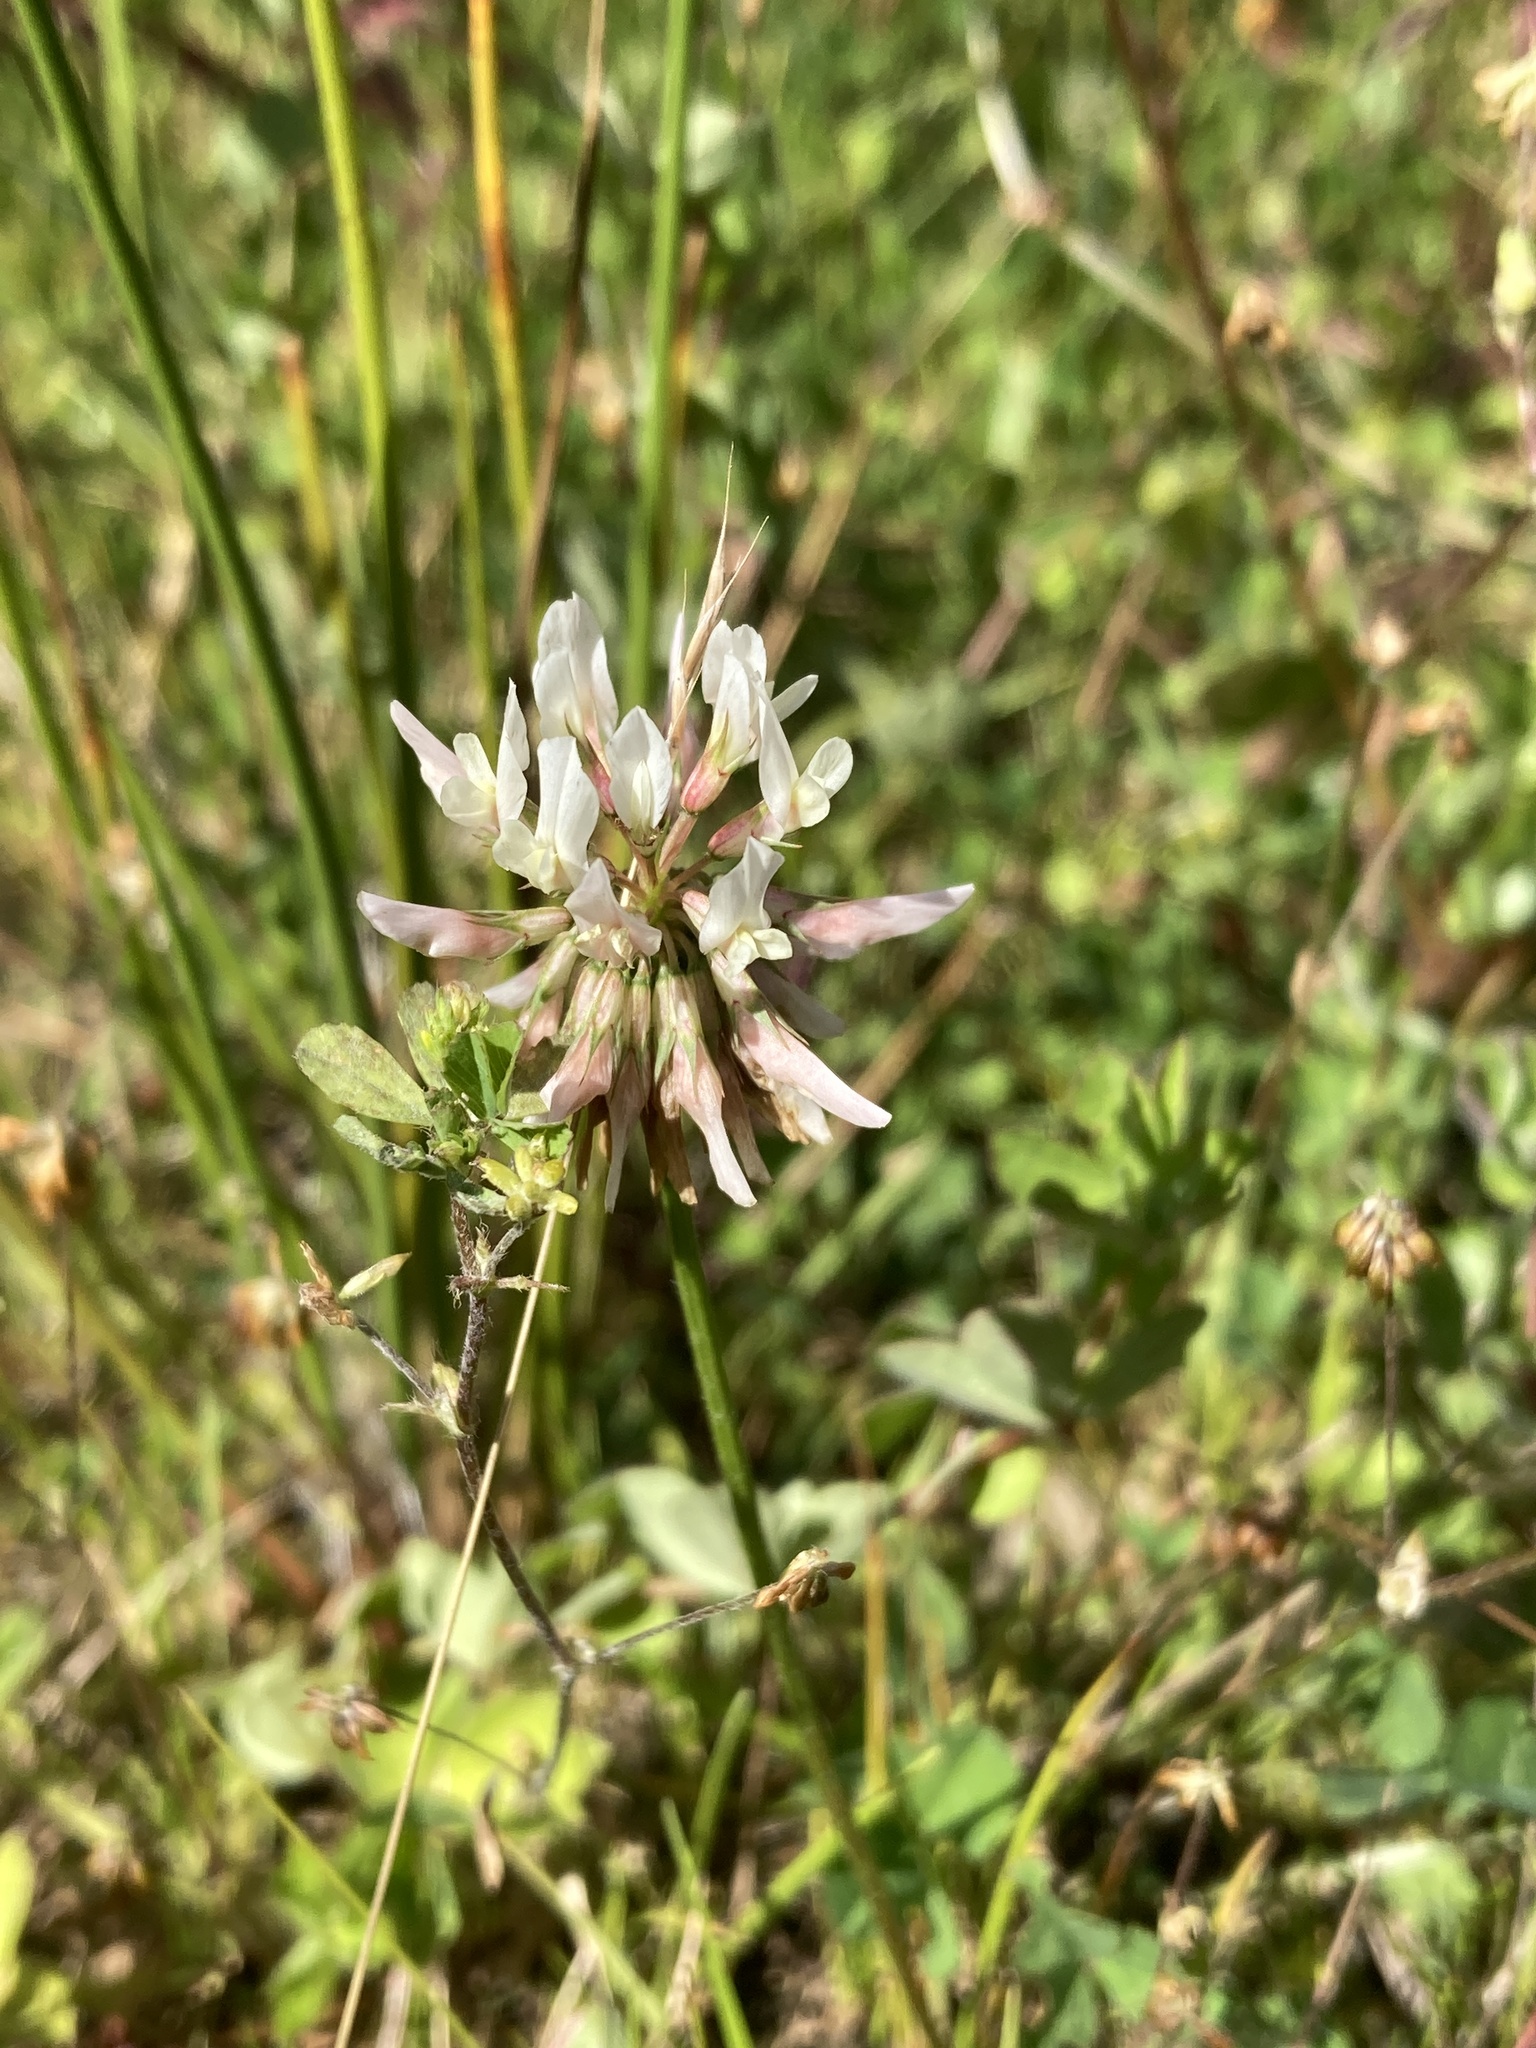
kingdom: Plantae
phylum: Tracheophyta
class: Magnoliopsida
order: Fabales
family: Fabaceae
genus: Trifolium
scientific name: Trifolium repens
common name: White clover
